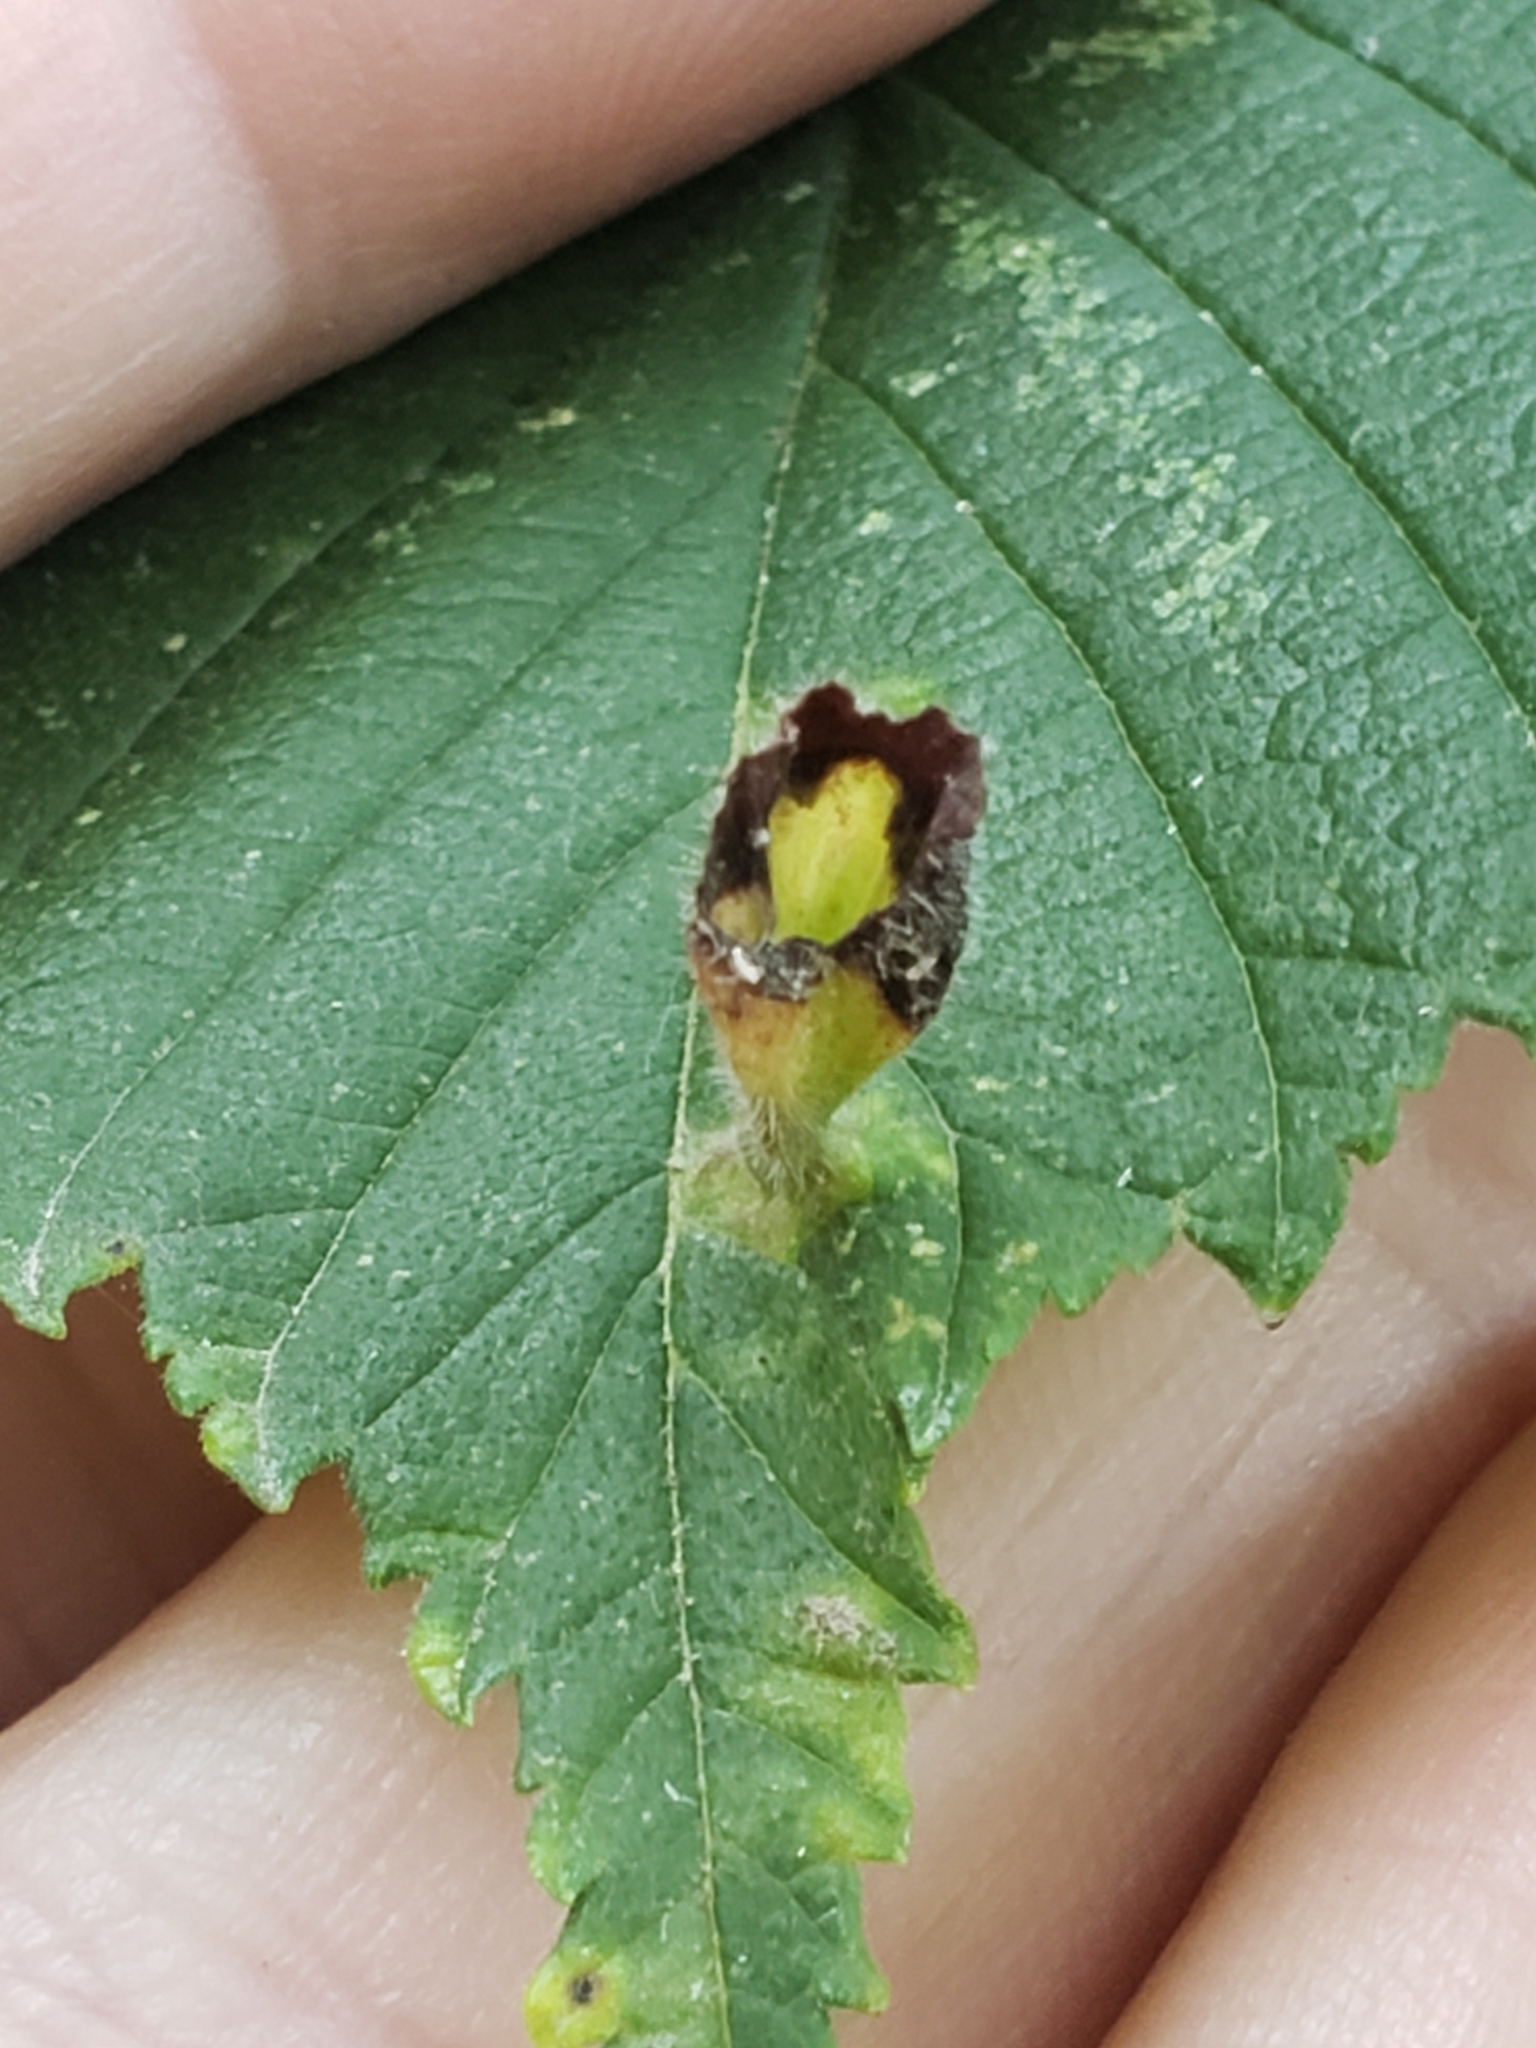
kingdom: Animalia
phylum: Arthropoda
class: Insecta
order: Hemiptera
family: Aphididae
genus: Tetraneura
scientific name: Tetraneura nigriabdominalis
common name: Aphid
